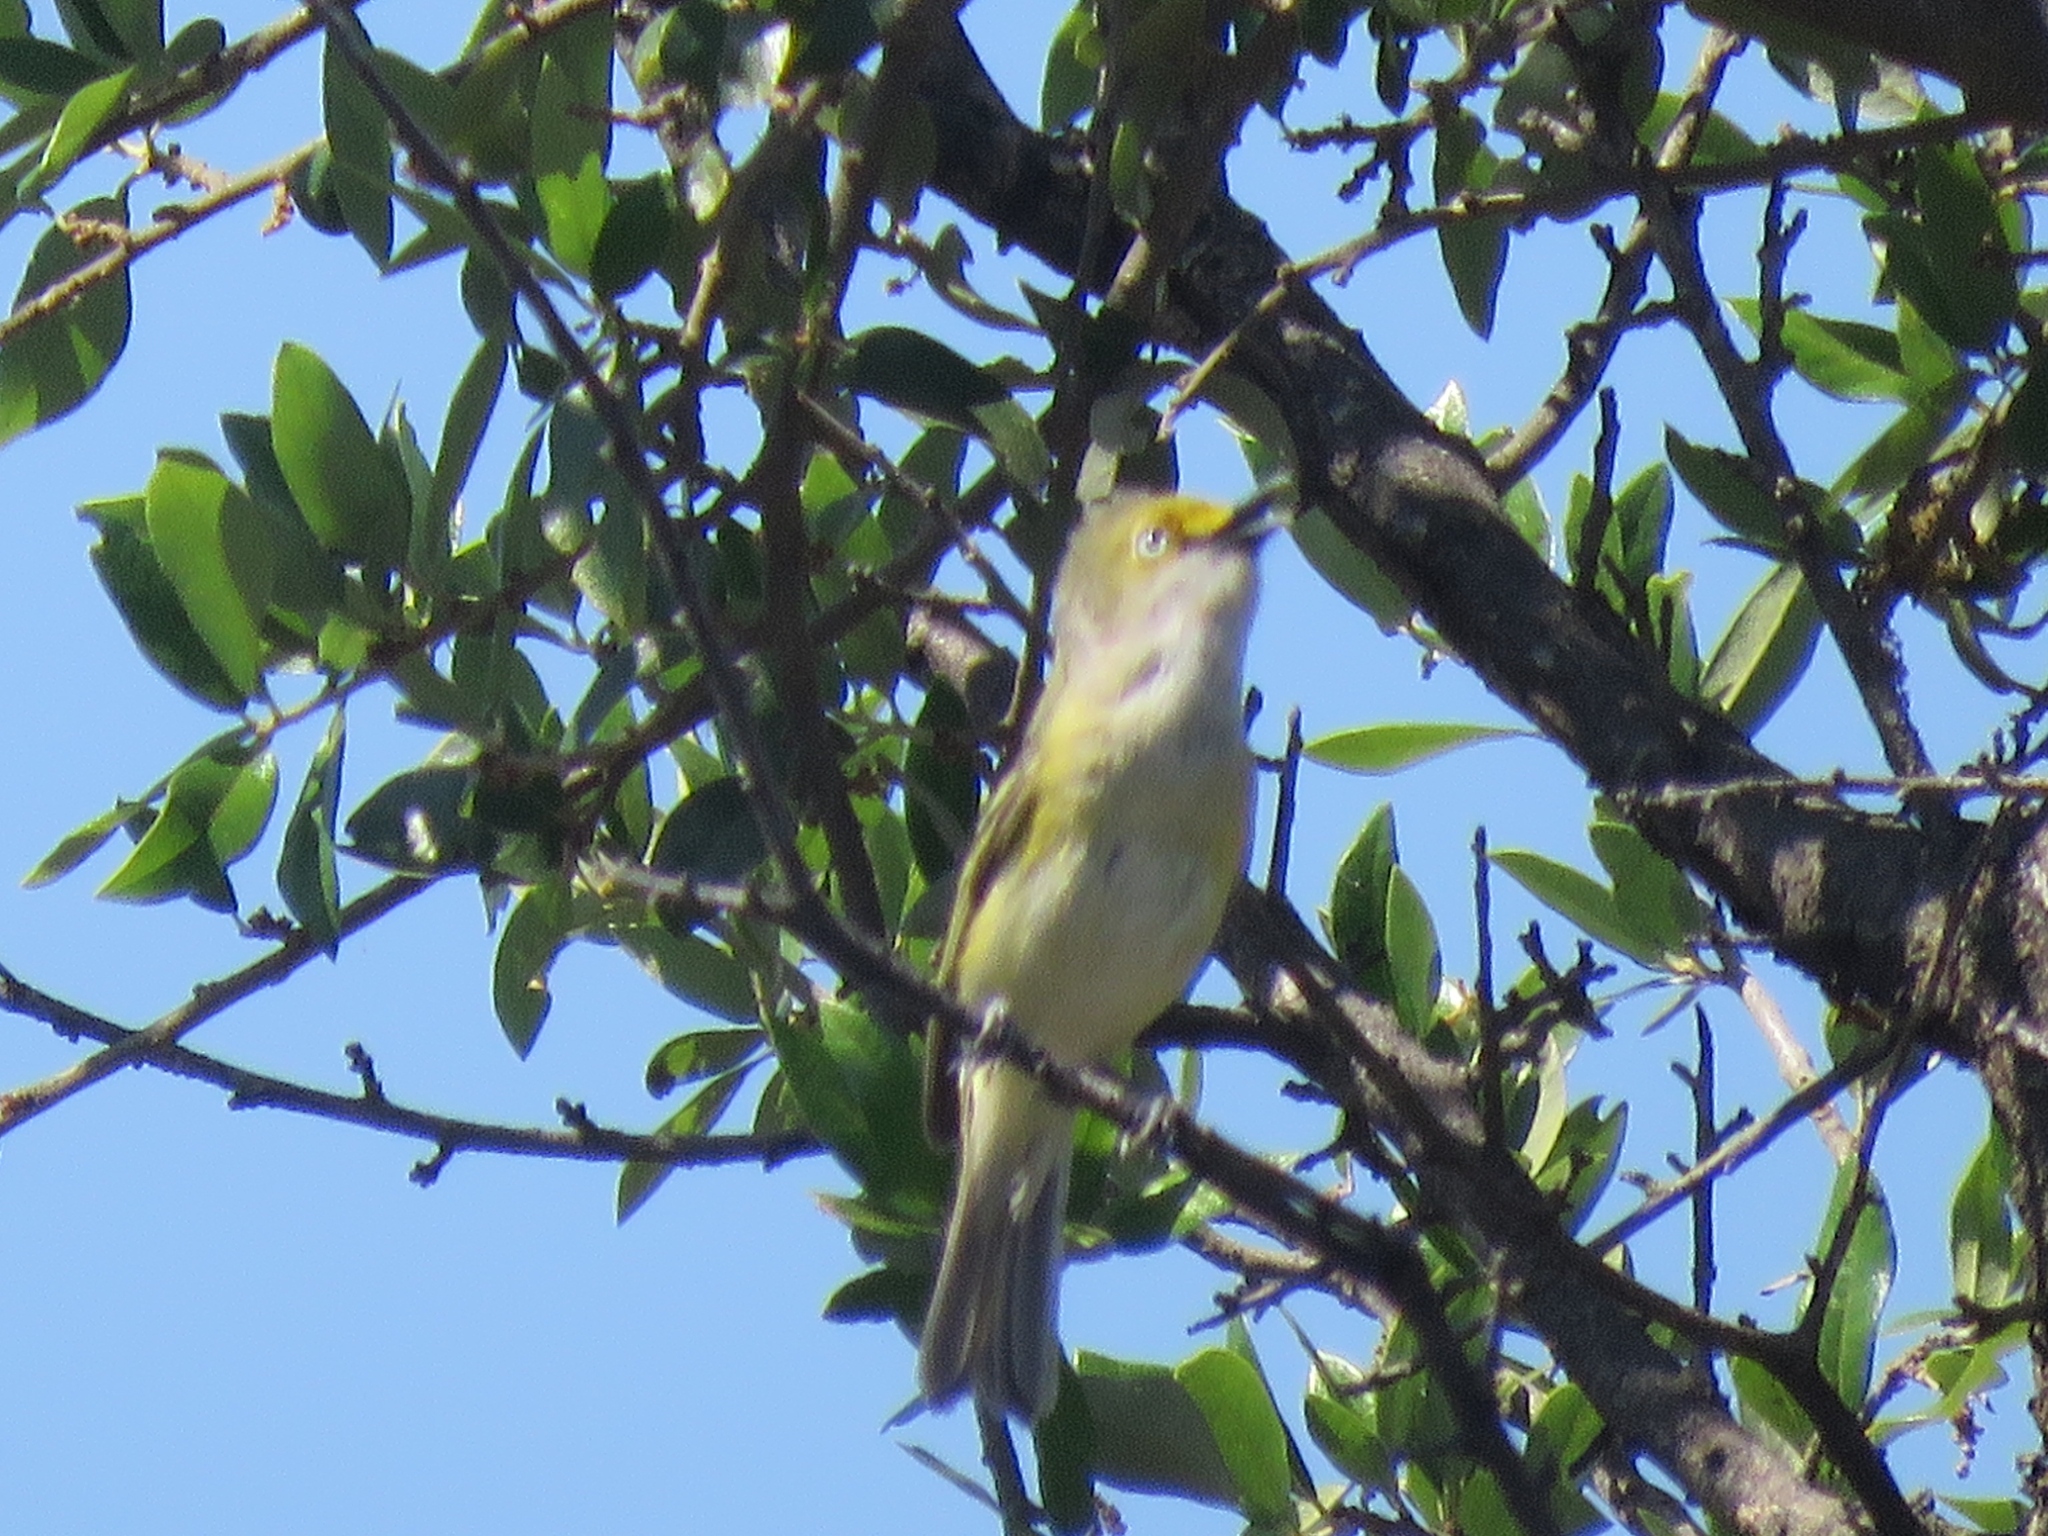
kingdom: Animalia
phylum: Chordata
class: Aves
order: Passeriformes
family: Vireonidae
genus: Vireo
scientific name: Vireo griseus
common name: White-eyed vireo
